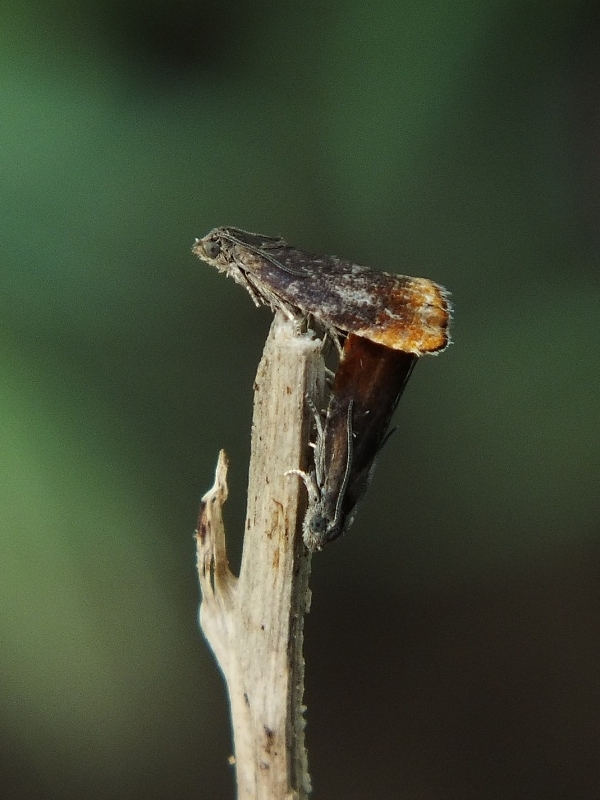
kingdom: Animalia
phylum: Arthropoda
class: Insecta
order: Lepidoptera
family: Tortricidae
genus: Pammene
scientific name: Pammene rhediella
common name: Fruitlet-mining tortrix
